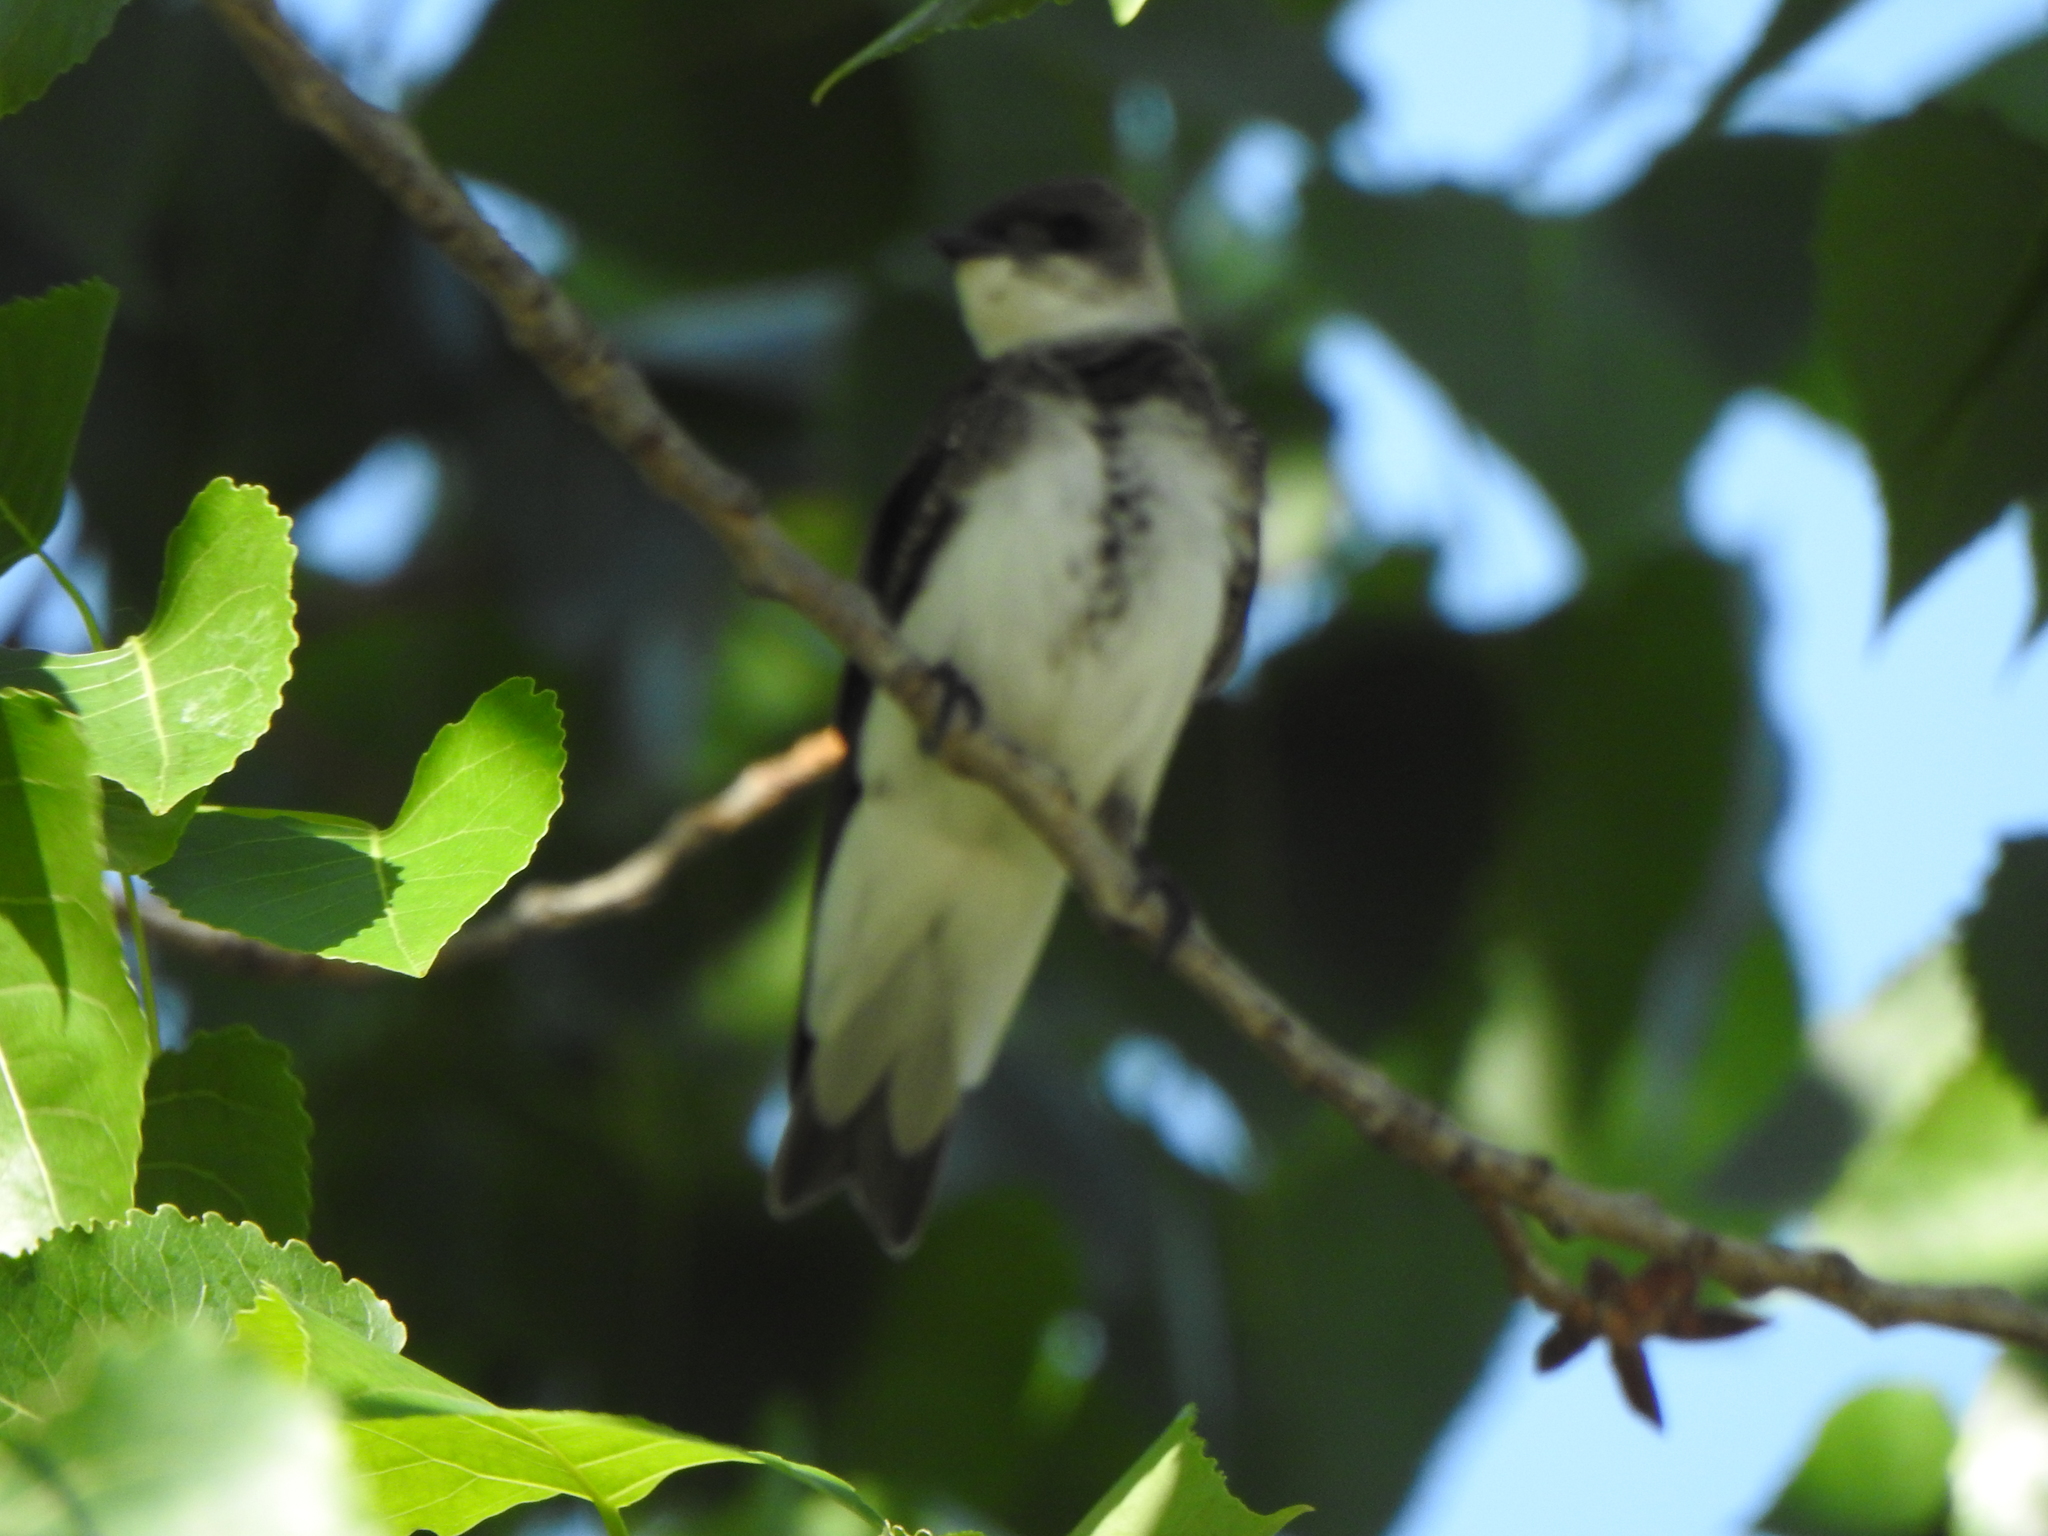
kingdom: Animalia
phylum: Chordata
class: Aves
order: Passeriformes
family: Hirundinidae
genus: Progne
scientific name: Progne tapera
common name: Brown-chested martin
